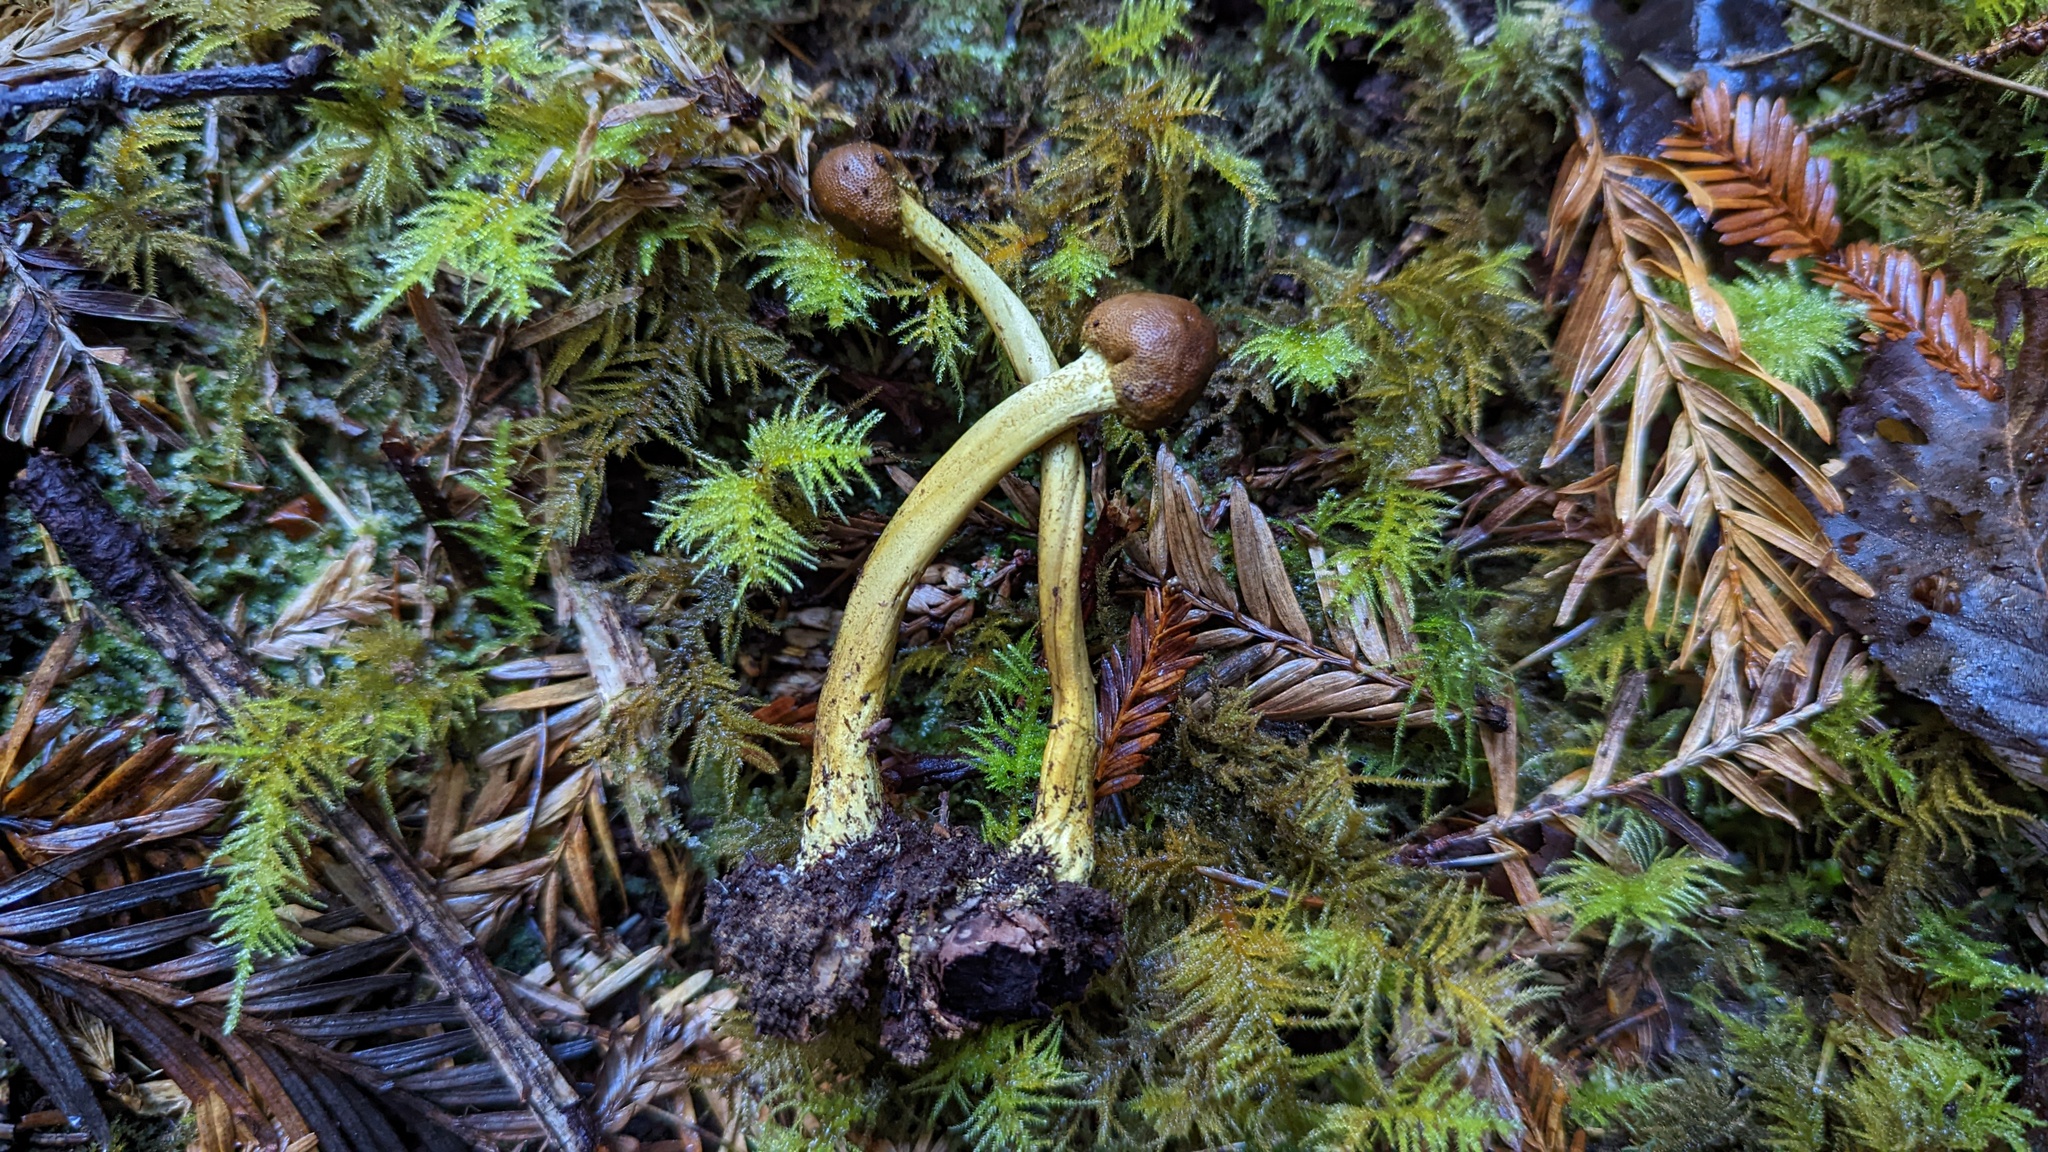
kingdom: Fungi
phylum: Ascomycota
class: Sordariomycetes
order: Hypocreales
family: Ophiocordycipitaceae
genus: Tolypocladium
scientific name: Tolypocladium capitatum
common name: Capitate truffleclub
